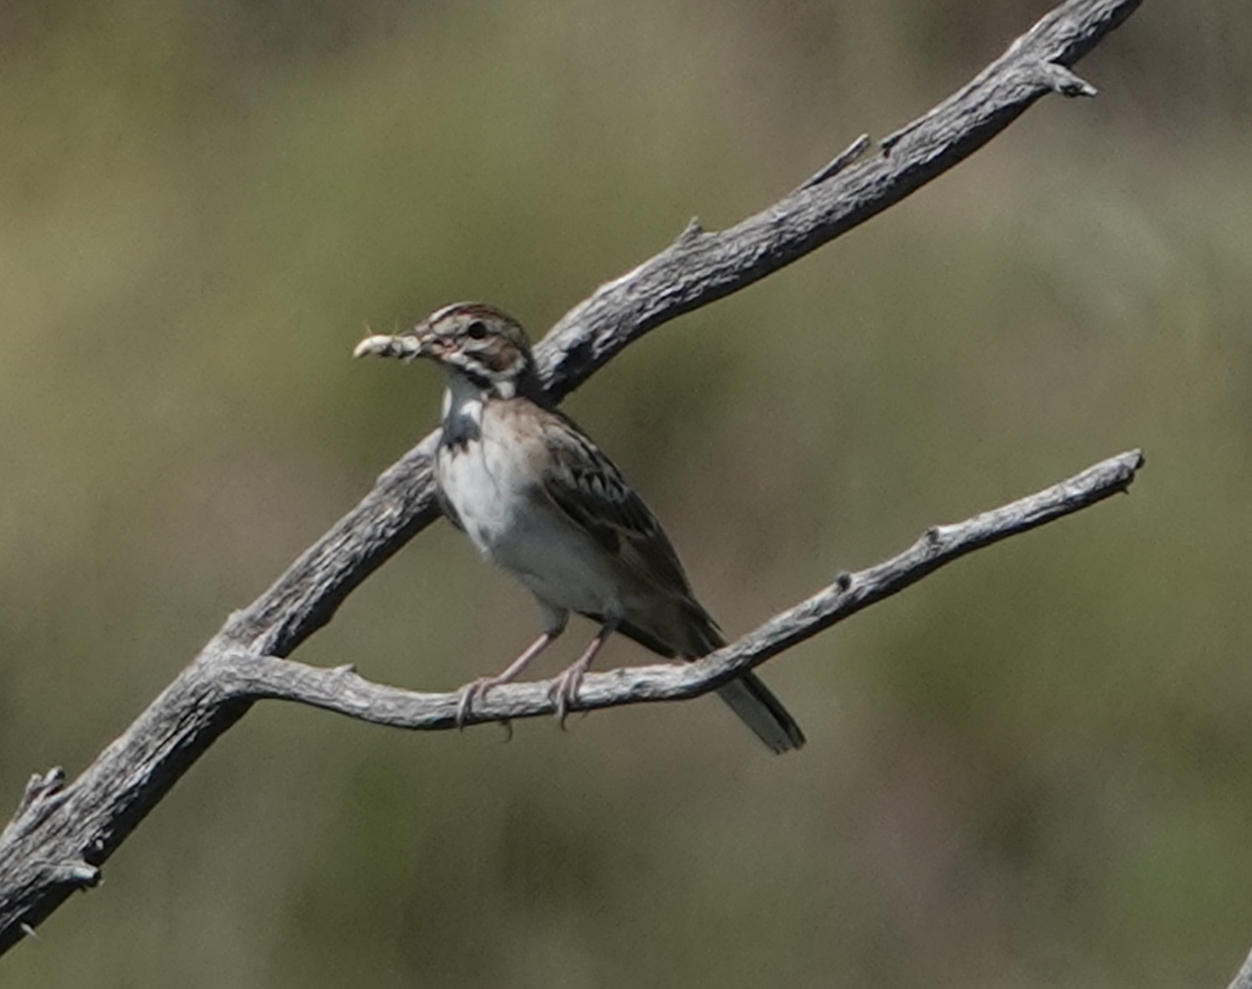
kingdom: Animalia
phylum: Chordata
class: Aves
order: Passeriformes
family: Passerellidae
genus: Chondestes
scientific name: Chondestes grammacus
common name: Lark sparrow
